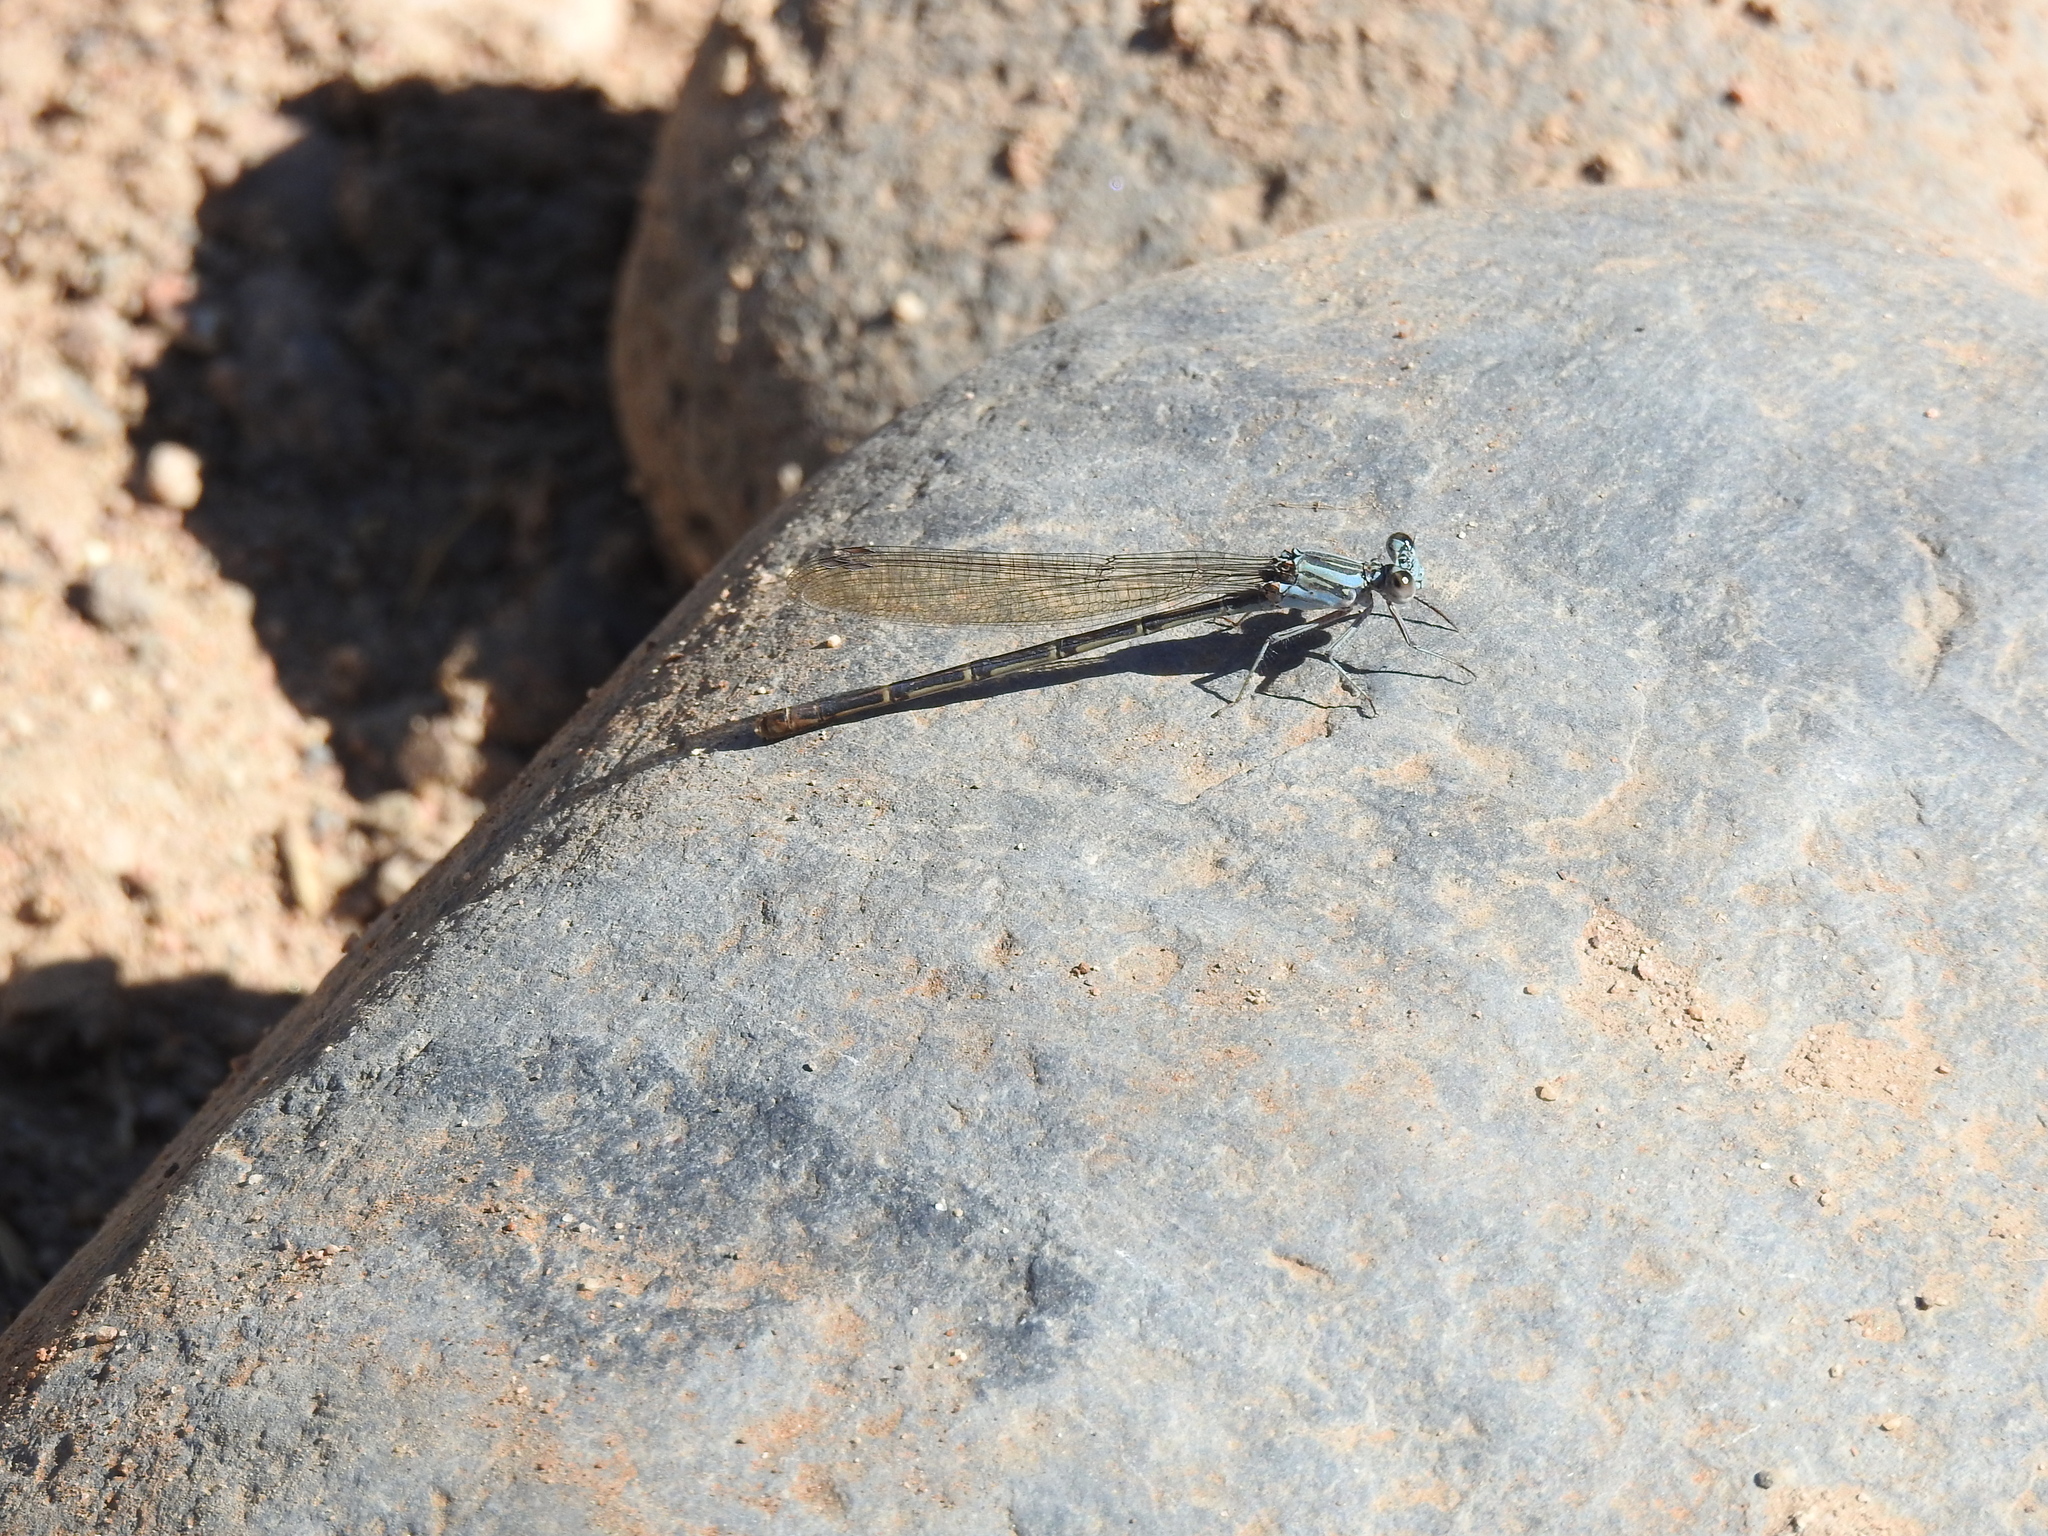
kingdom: Animalia
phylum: Arthropoda
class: Insecta
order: Odonata
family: Coenagrionidae
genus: Argia
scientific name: Argia lugens
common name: Sooty dancer
